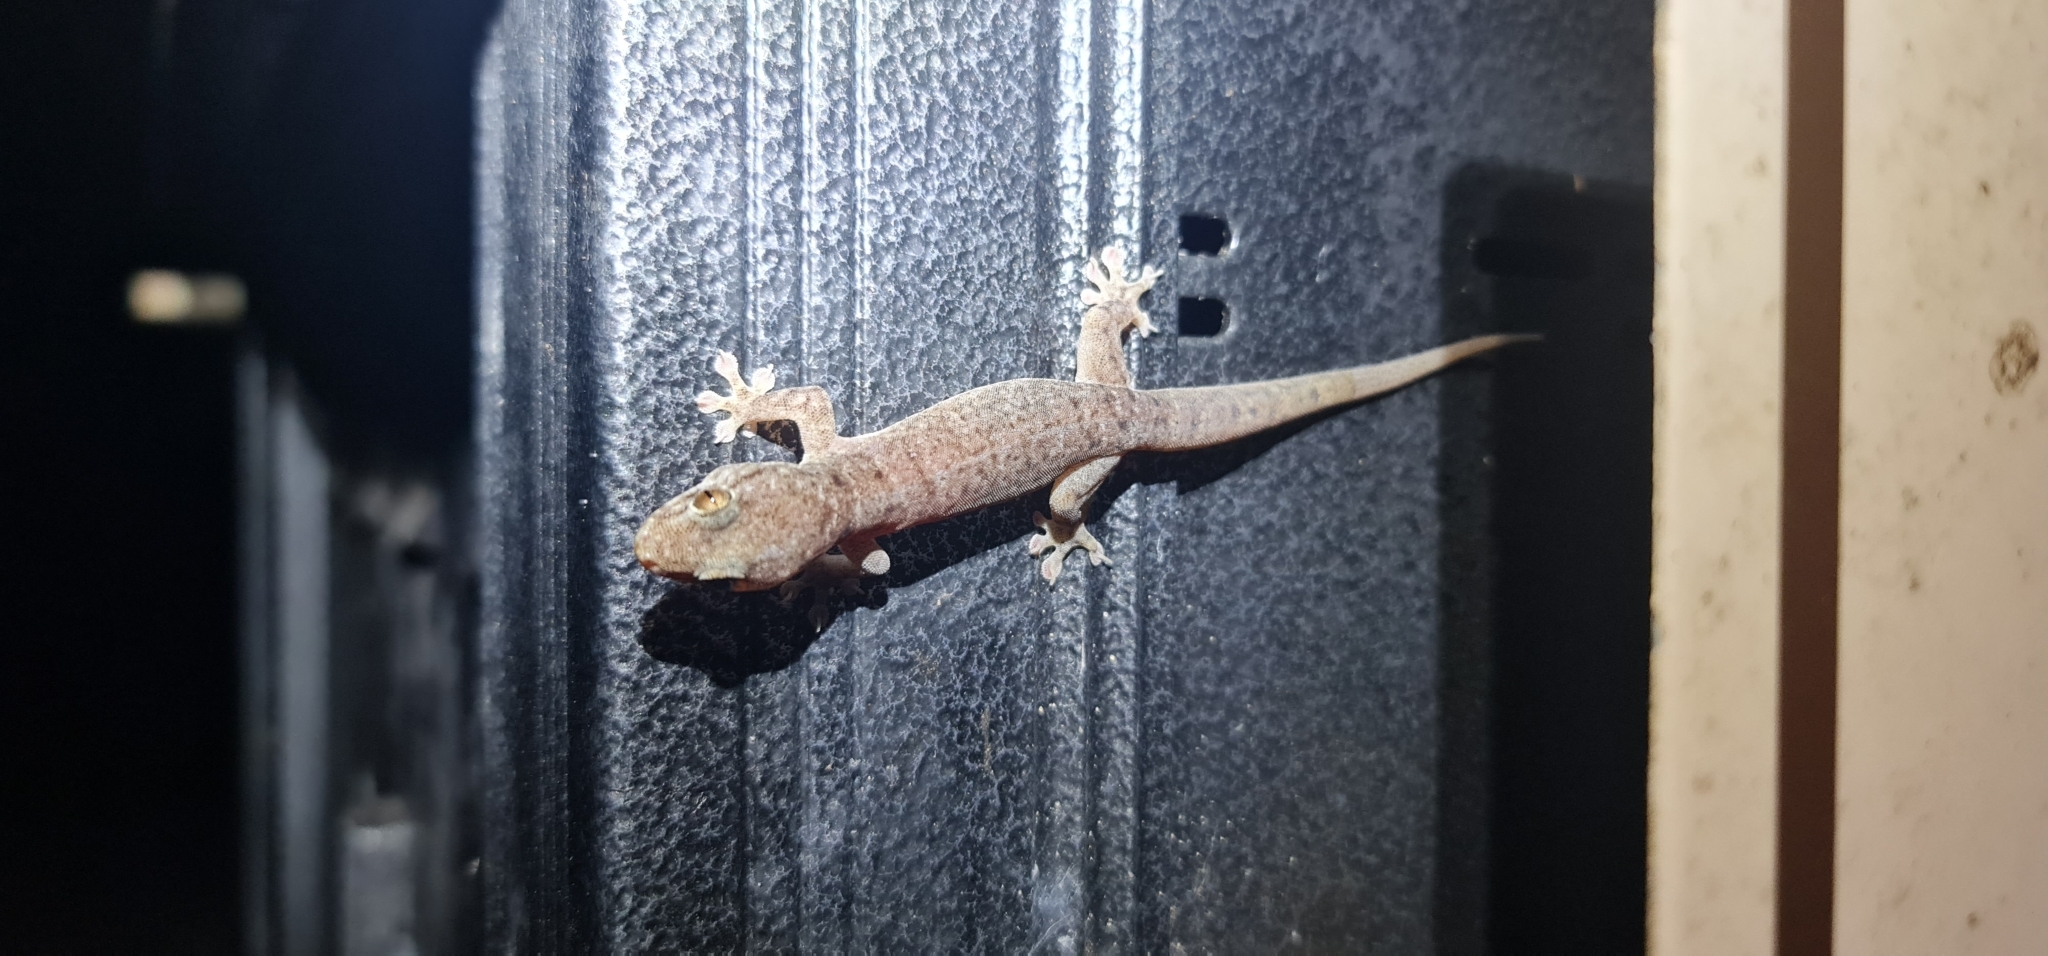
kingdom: Animalia
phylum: Chordata
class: Squamata
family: Gekkonidae
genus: Gehyra
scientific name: Gehyra australis
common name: House gecko
